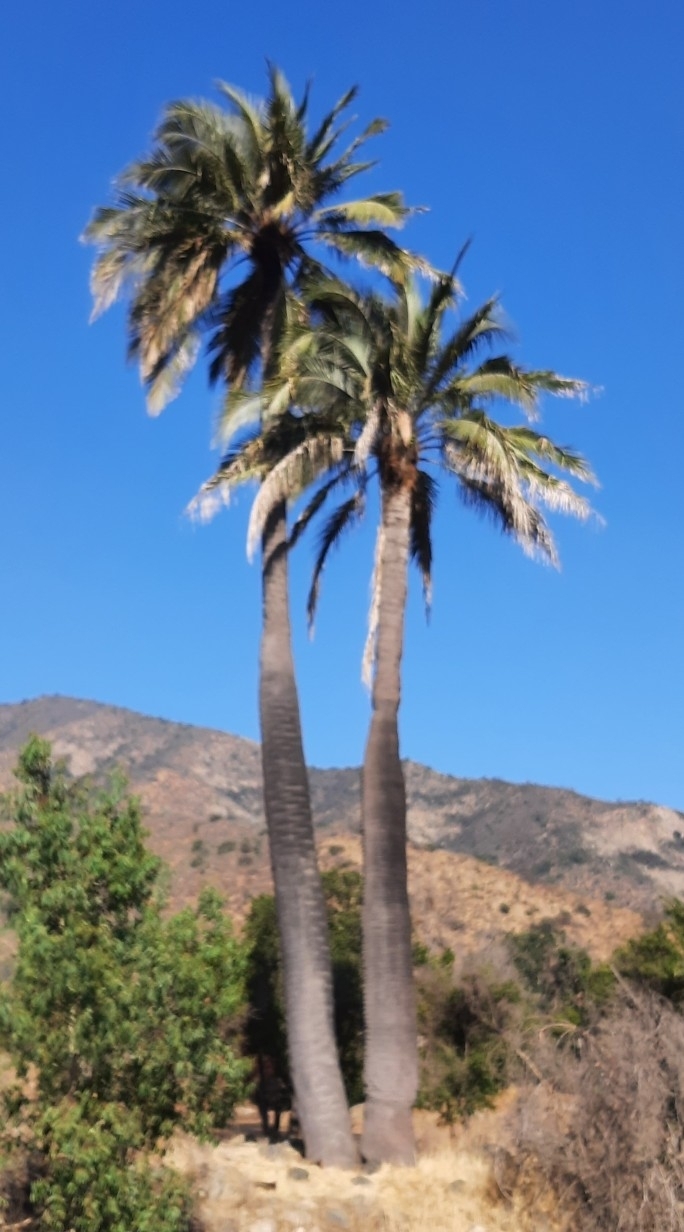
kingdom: Plantae
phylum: Tracheophyta
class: Liliopsida
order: Arecales
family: Arecaceae
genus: Jubaea
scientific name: Jubaea chilensis
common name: Coquito palm
